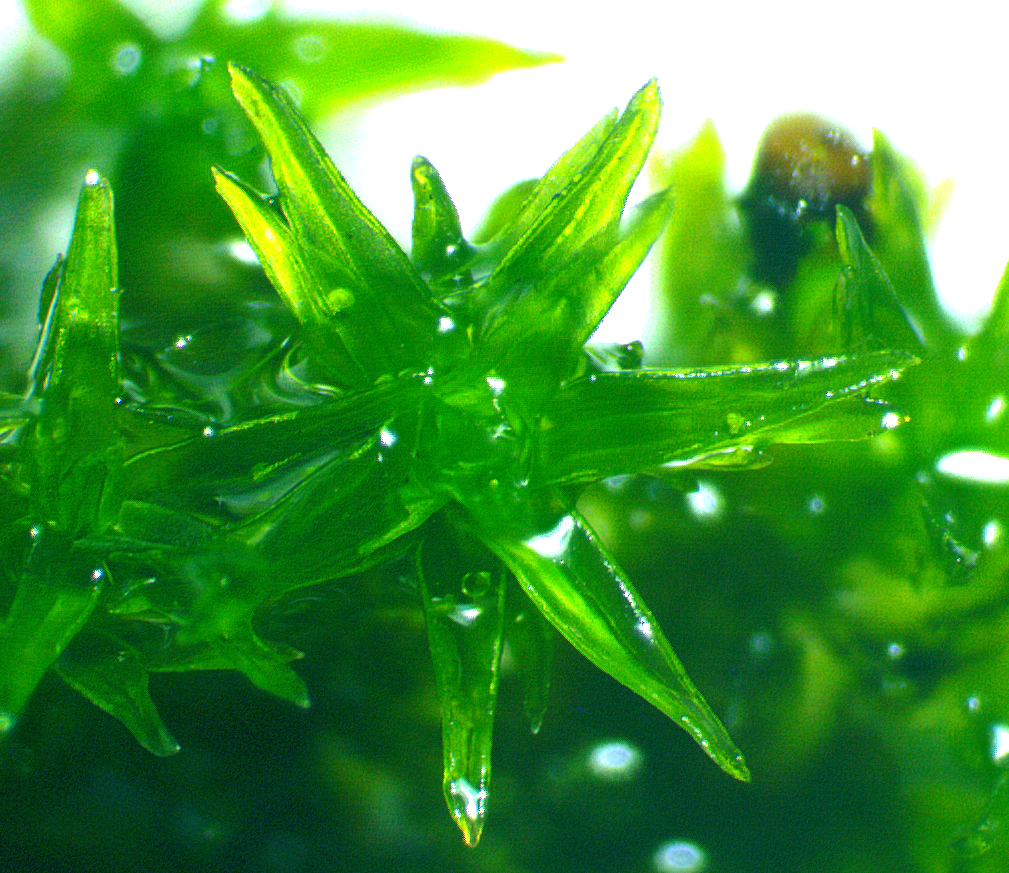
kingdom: Plantae
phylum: Bryophyta
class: Bryopsida
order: Orthotrichales
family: Orthotrichaceae
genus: Lewinskya
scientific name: Lewinskya sordida
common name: Dark-green bristle moss
